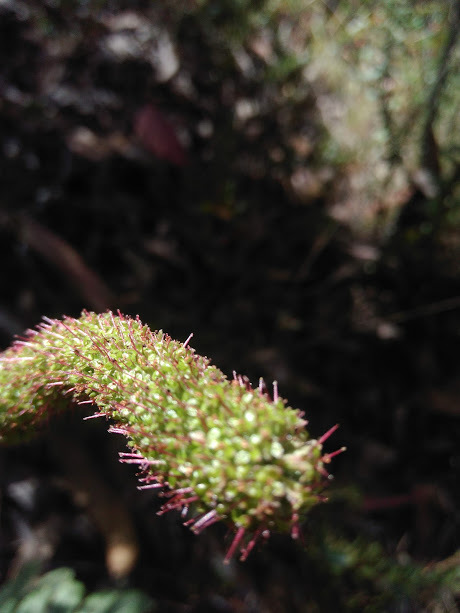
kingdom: Plantae
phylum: Tracheophyta
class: Magnoliopsida
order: Rosales
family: Rosaceae
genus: Acaena
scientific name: Acaena cylindristachya
